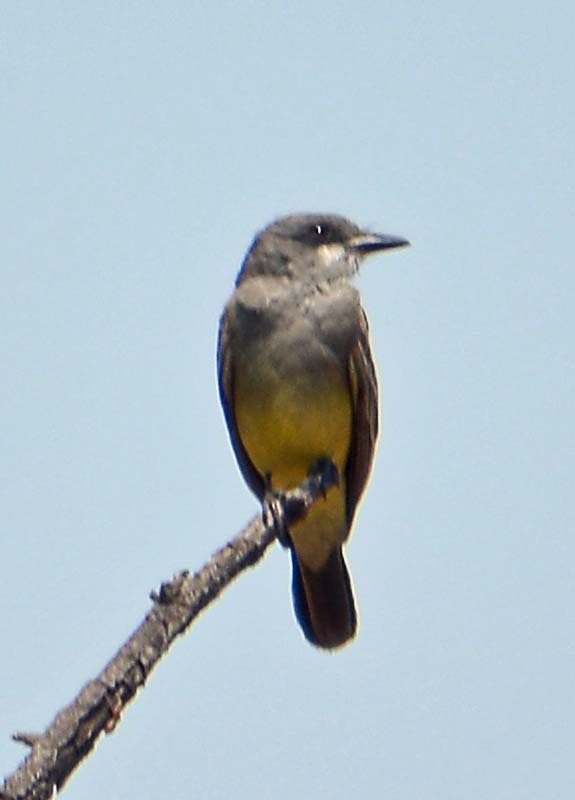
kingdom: Animalia
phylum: Chordata
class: Aves
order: Passeriformes
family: Tyrannidae
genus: Tyrannus
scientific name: Tyrannus vociferans
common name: Cassin's kingbird
